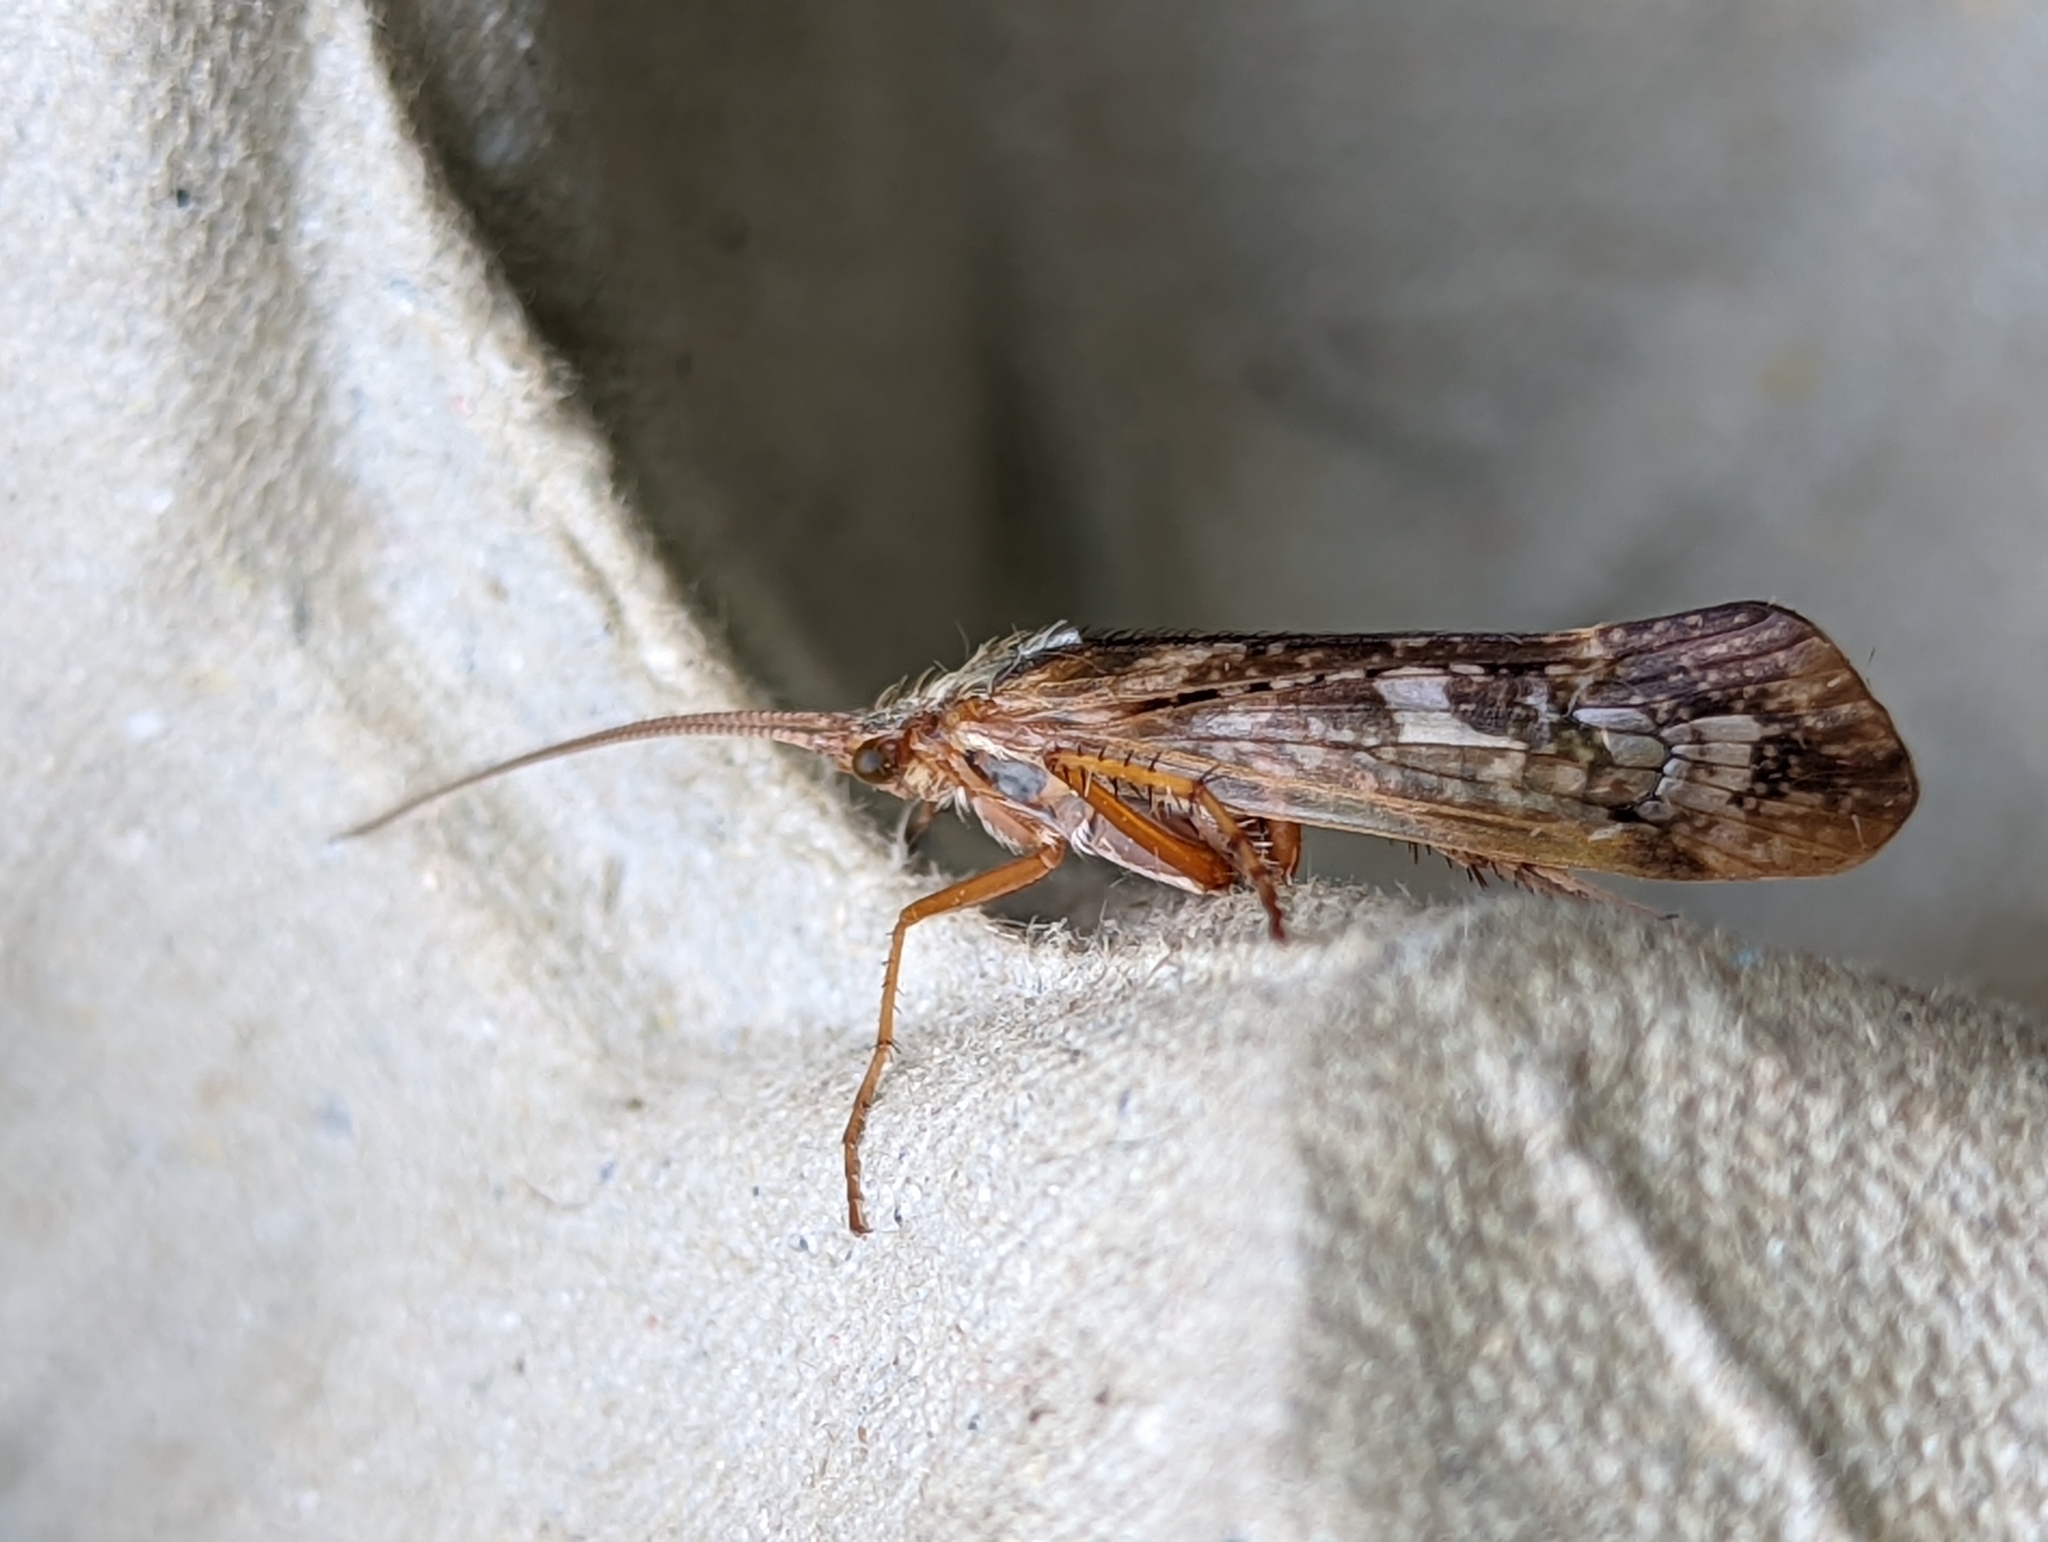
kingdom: Animalia
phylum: Arthropoda
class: Insecta
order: Trichoptera
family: Limnephilidae
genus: Limnephilus
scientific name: Limnephilus marmoratus
